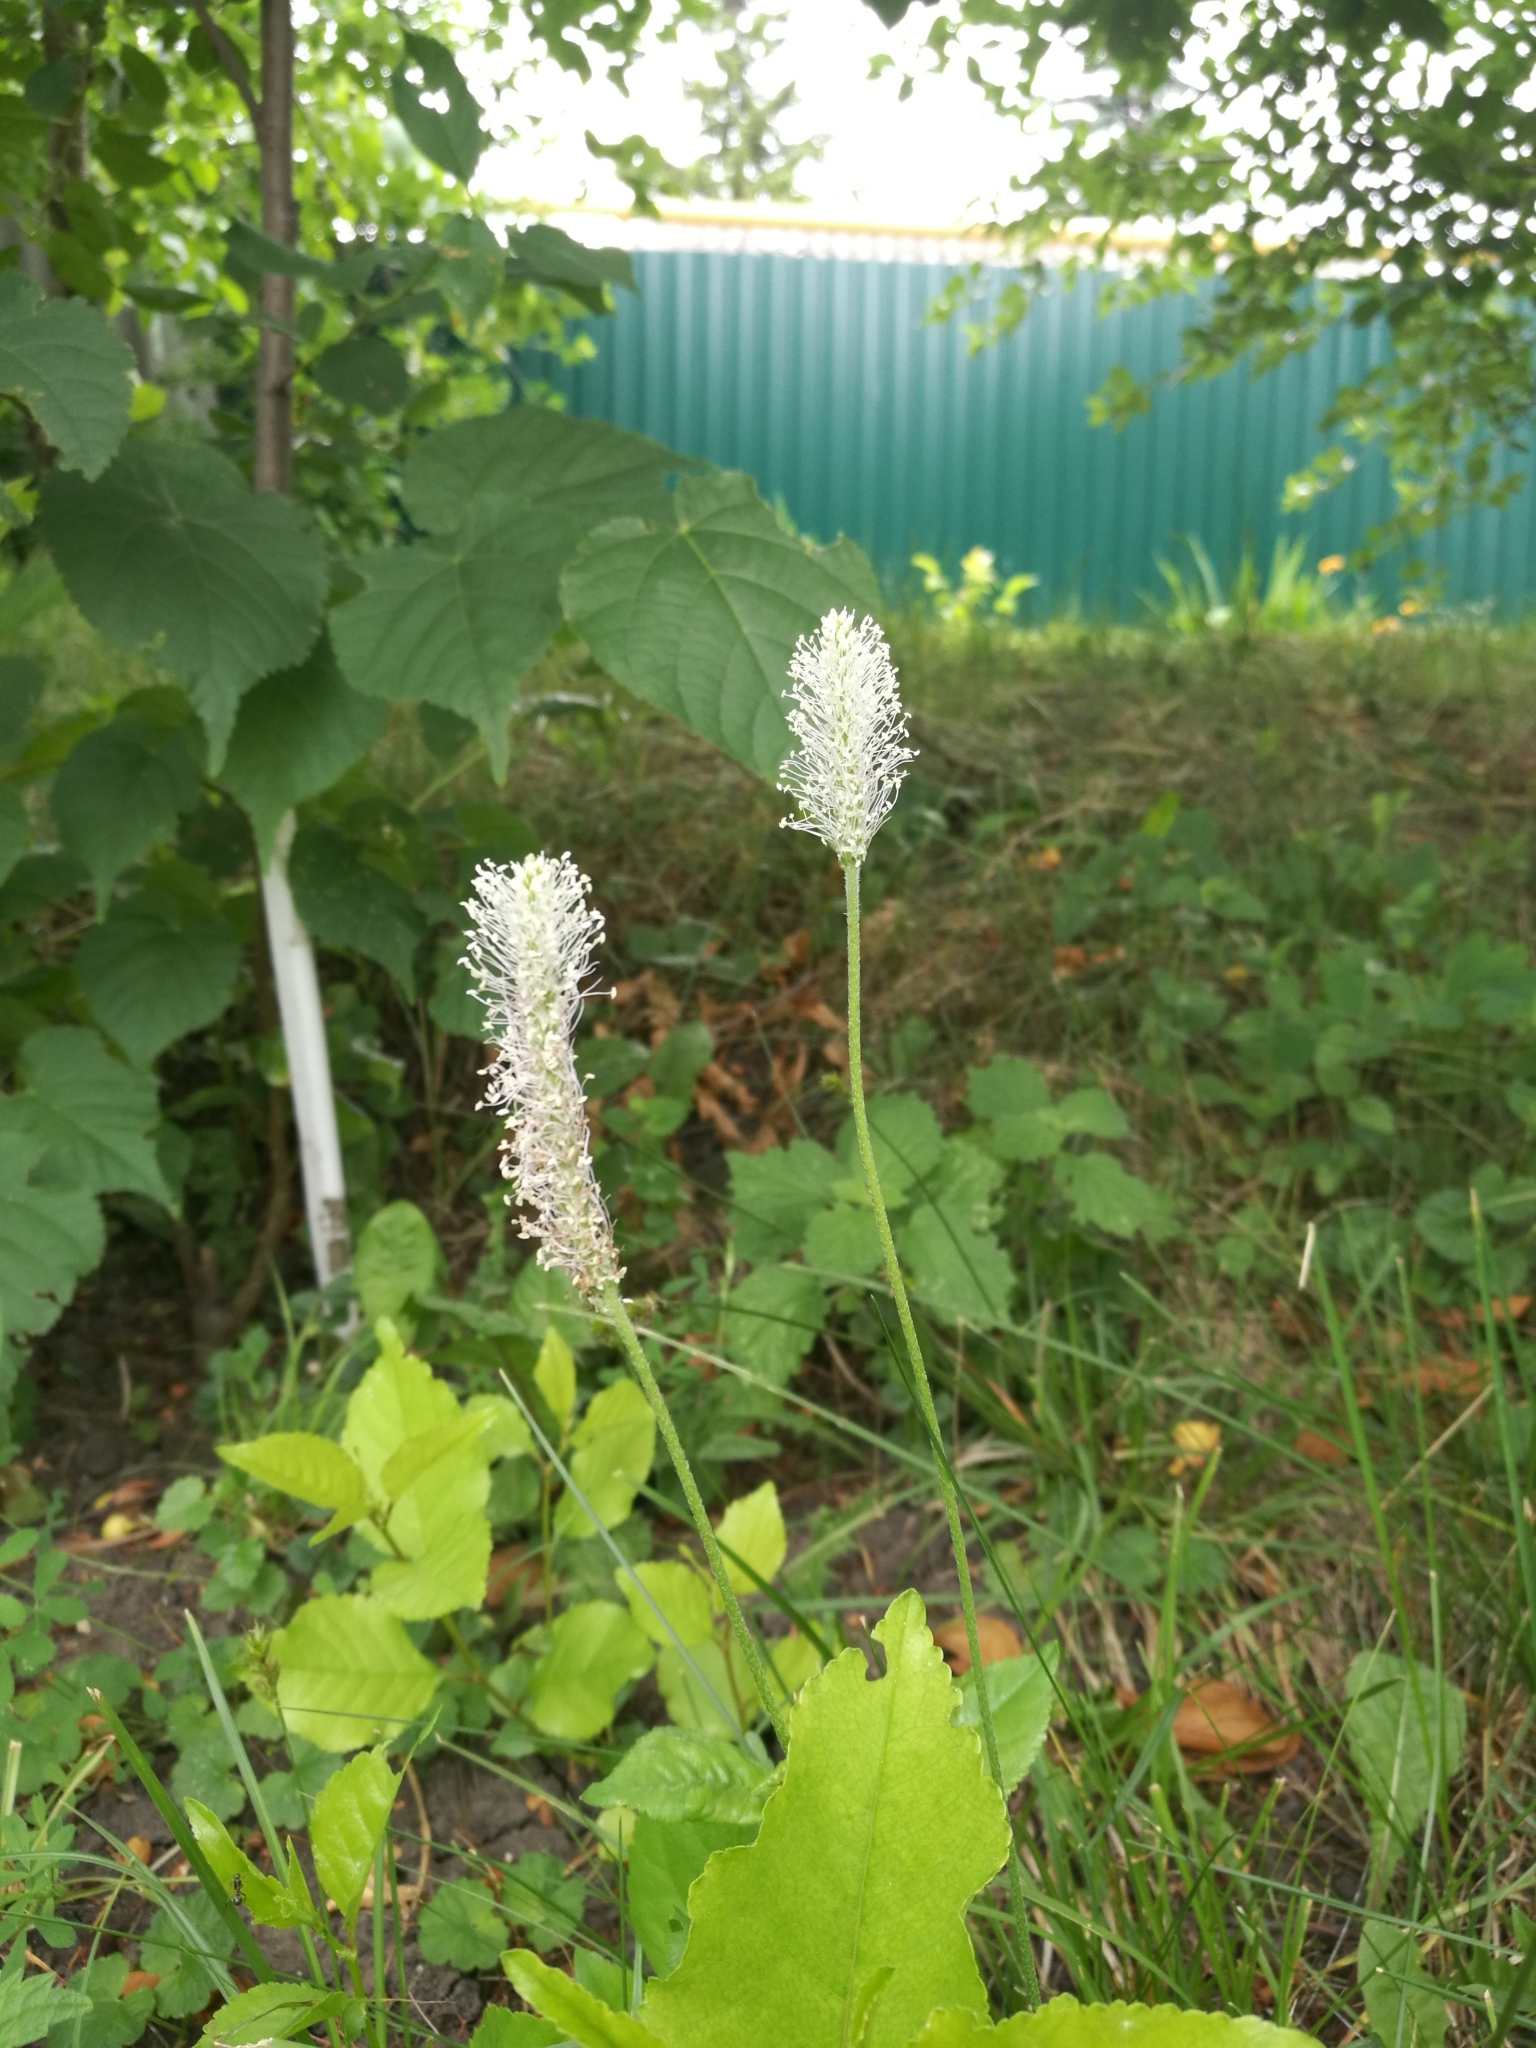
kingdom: Plantae
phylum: Tracheophyta
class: Magnoliopsida
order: Lamiales
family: Plantaginaceae
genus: Plantago
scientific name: Plantago media
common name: Hoary plantain
